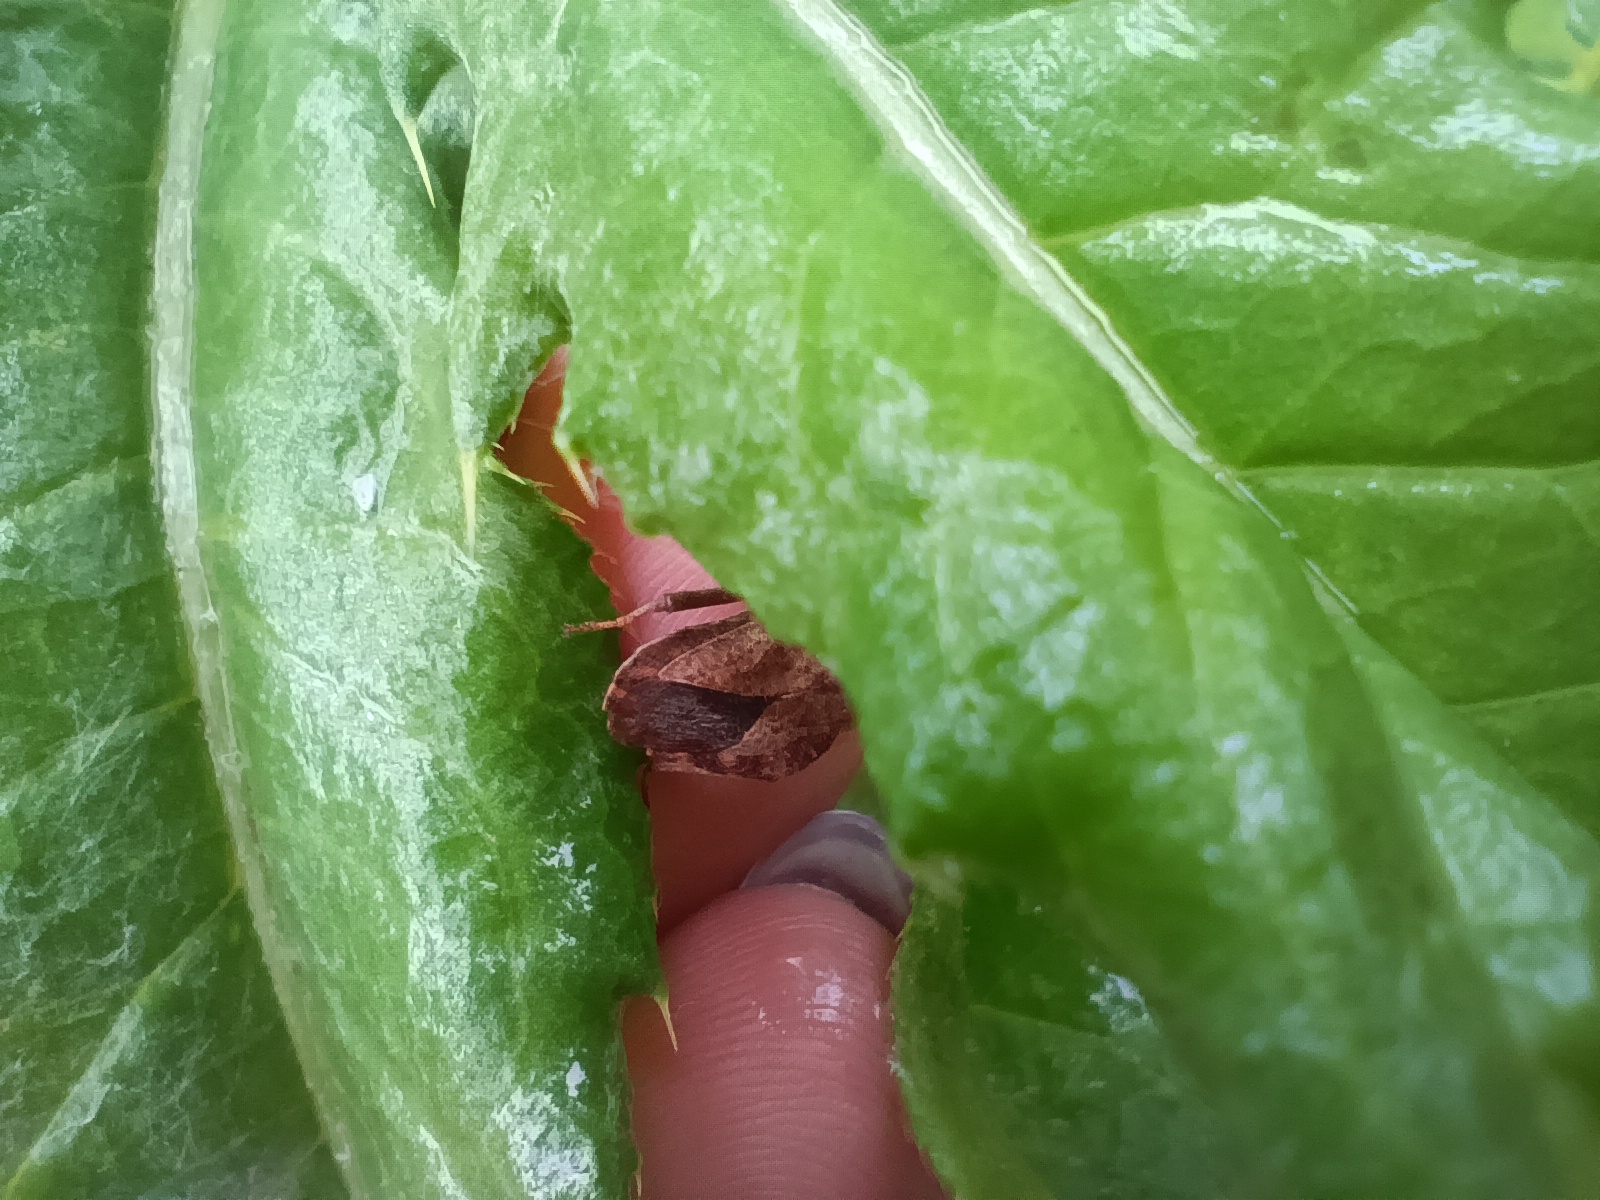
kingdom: Animalia
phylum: Arthropoda
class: Insecta
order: Hemiptera
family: Coreidae
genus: Coreus
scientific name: Coreus marginatus
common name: Dock bug
